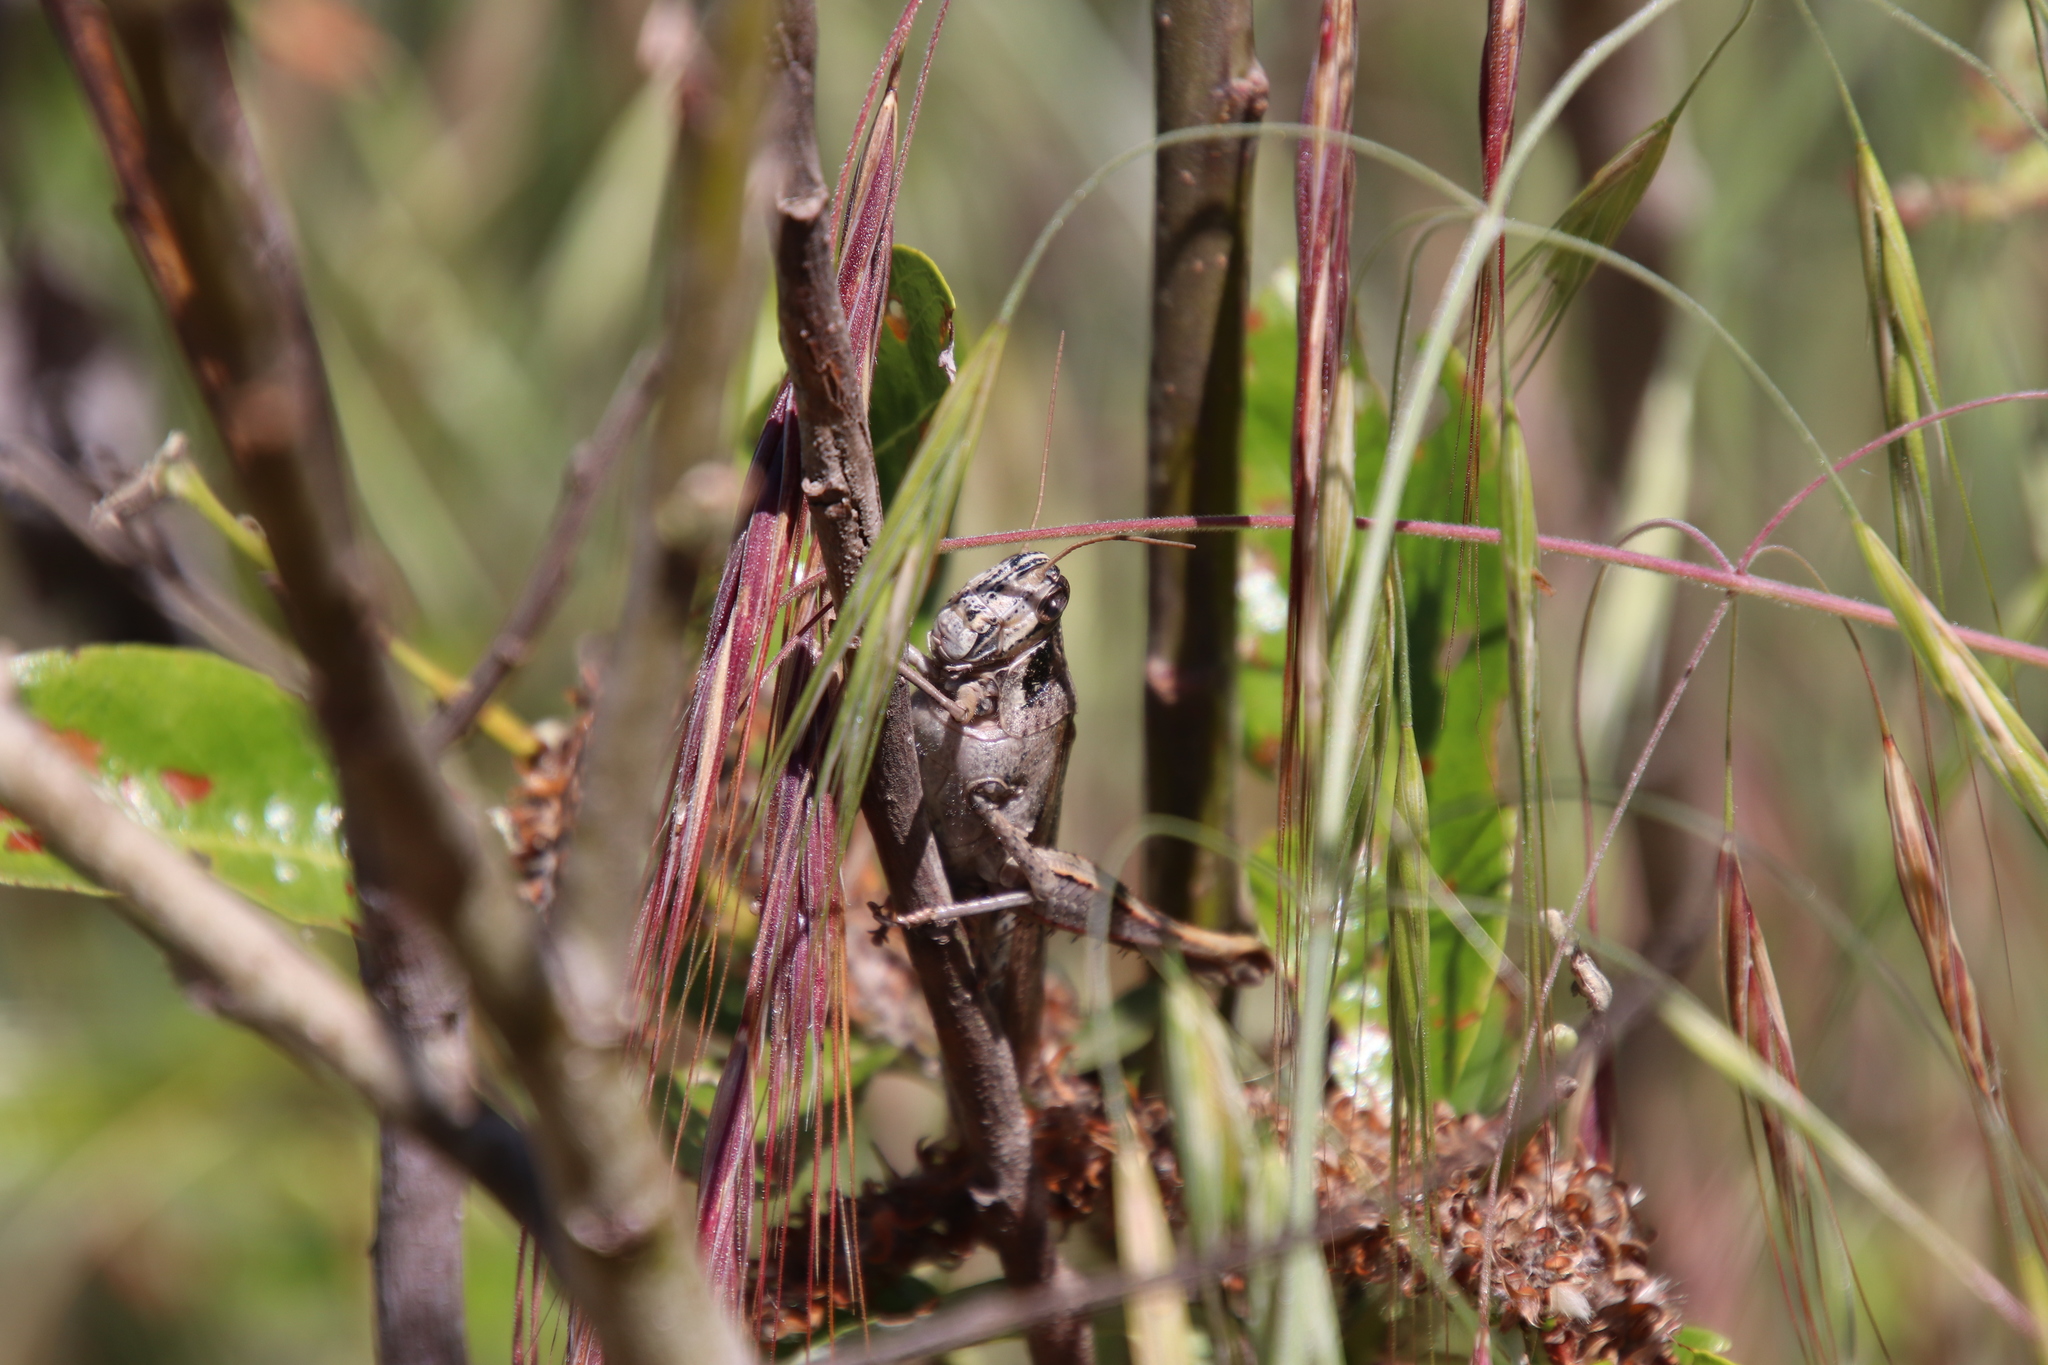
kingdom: Animalia
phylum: Arthropoda
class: Insecta
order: Orthoptera
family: Acrididae
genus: Schistocerca
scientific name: Schistocerca nitens
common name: Vagrant grasshopper
